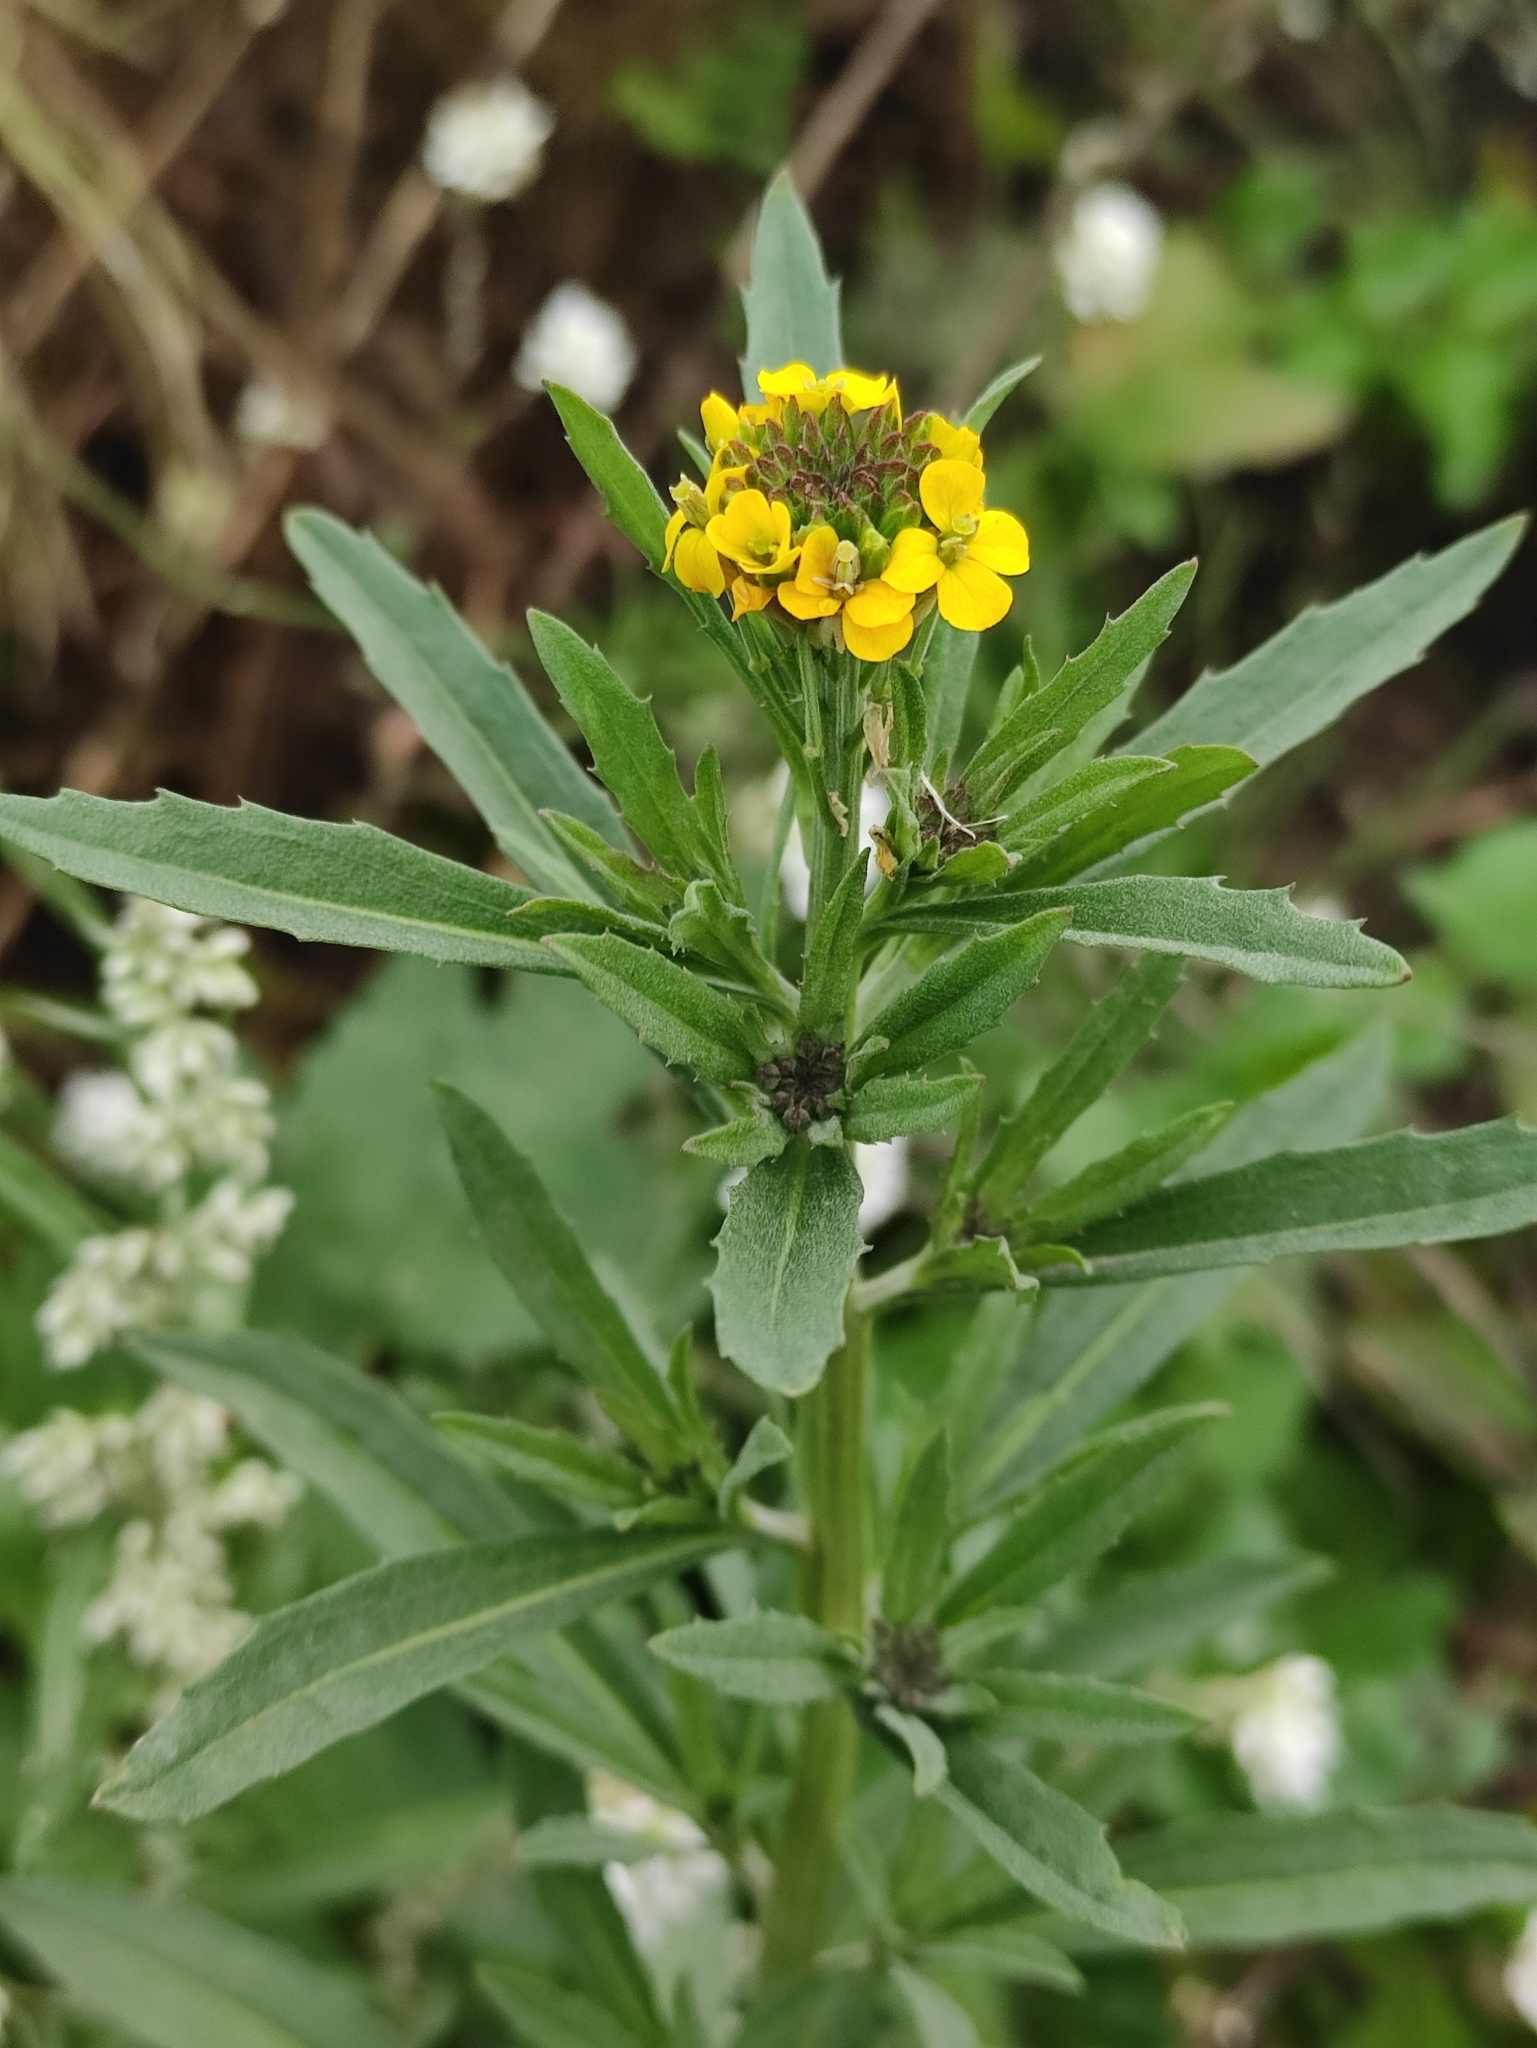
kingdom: Plantae
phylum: Tracheophyta
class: Magnoliopsida
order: Brassicales
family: Brassicaceae
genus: Erysimum
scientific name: Erysimum hieraciifolium
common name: European wallflower
